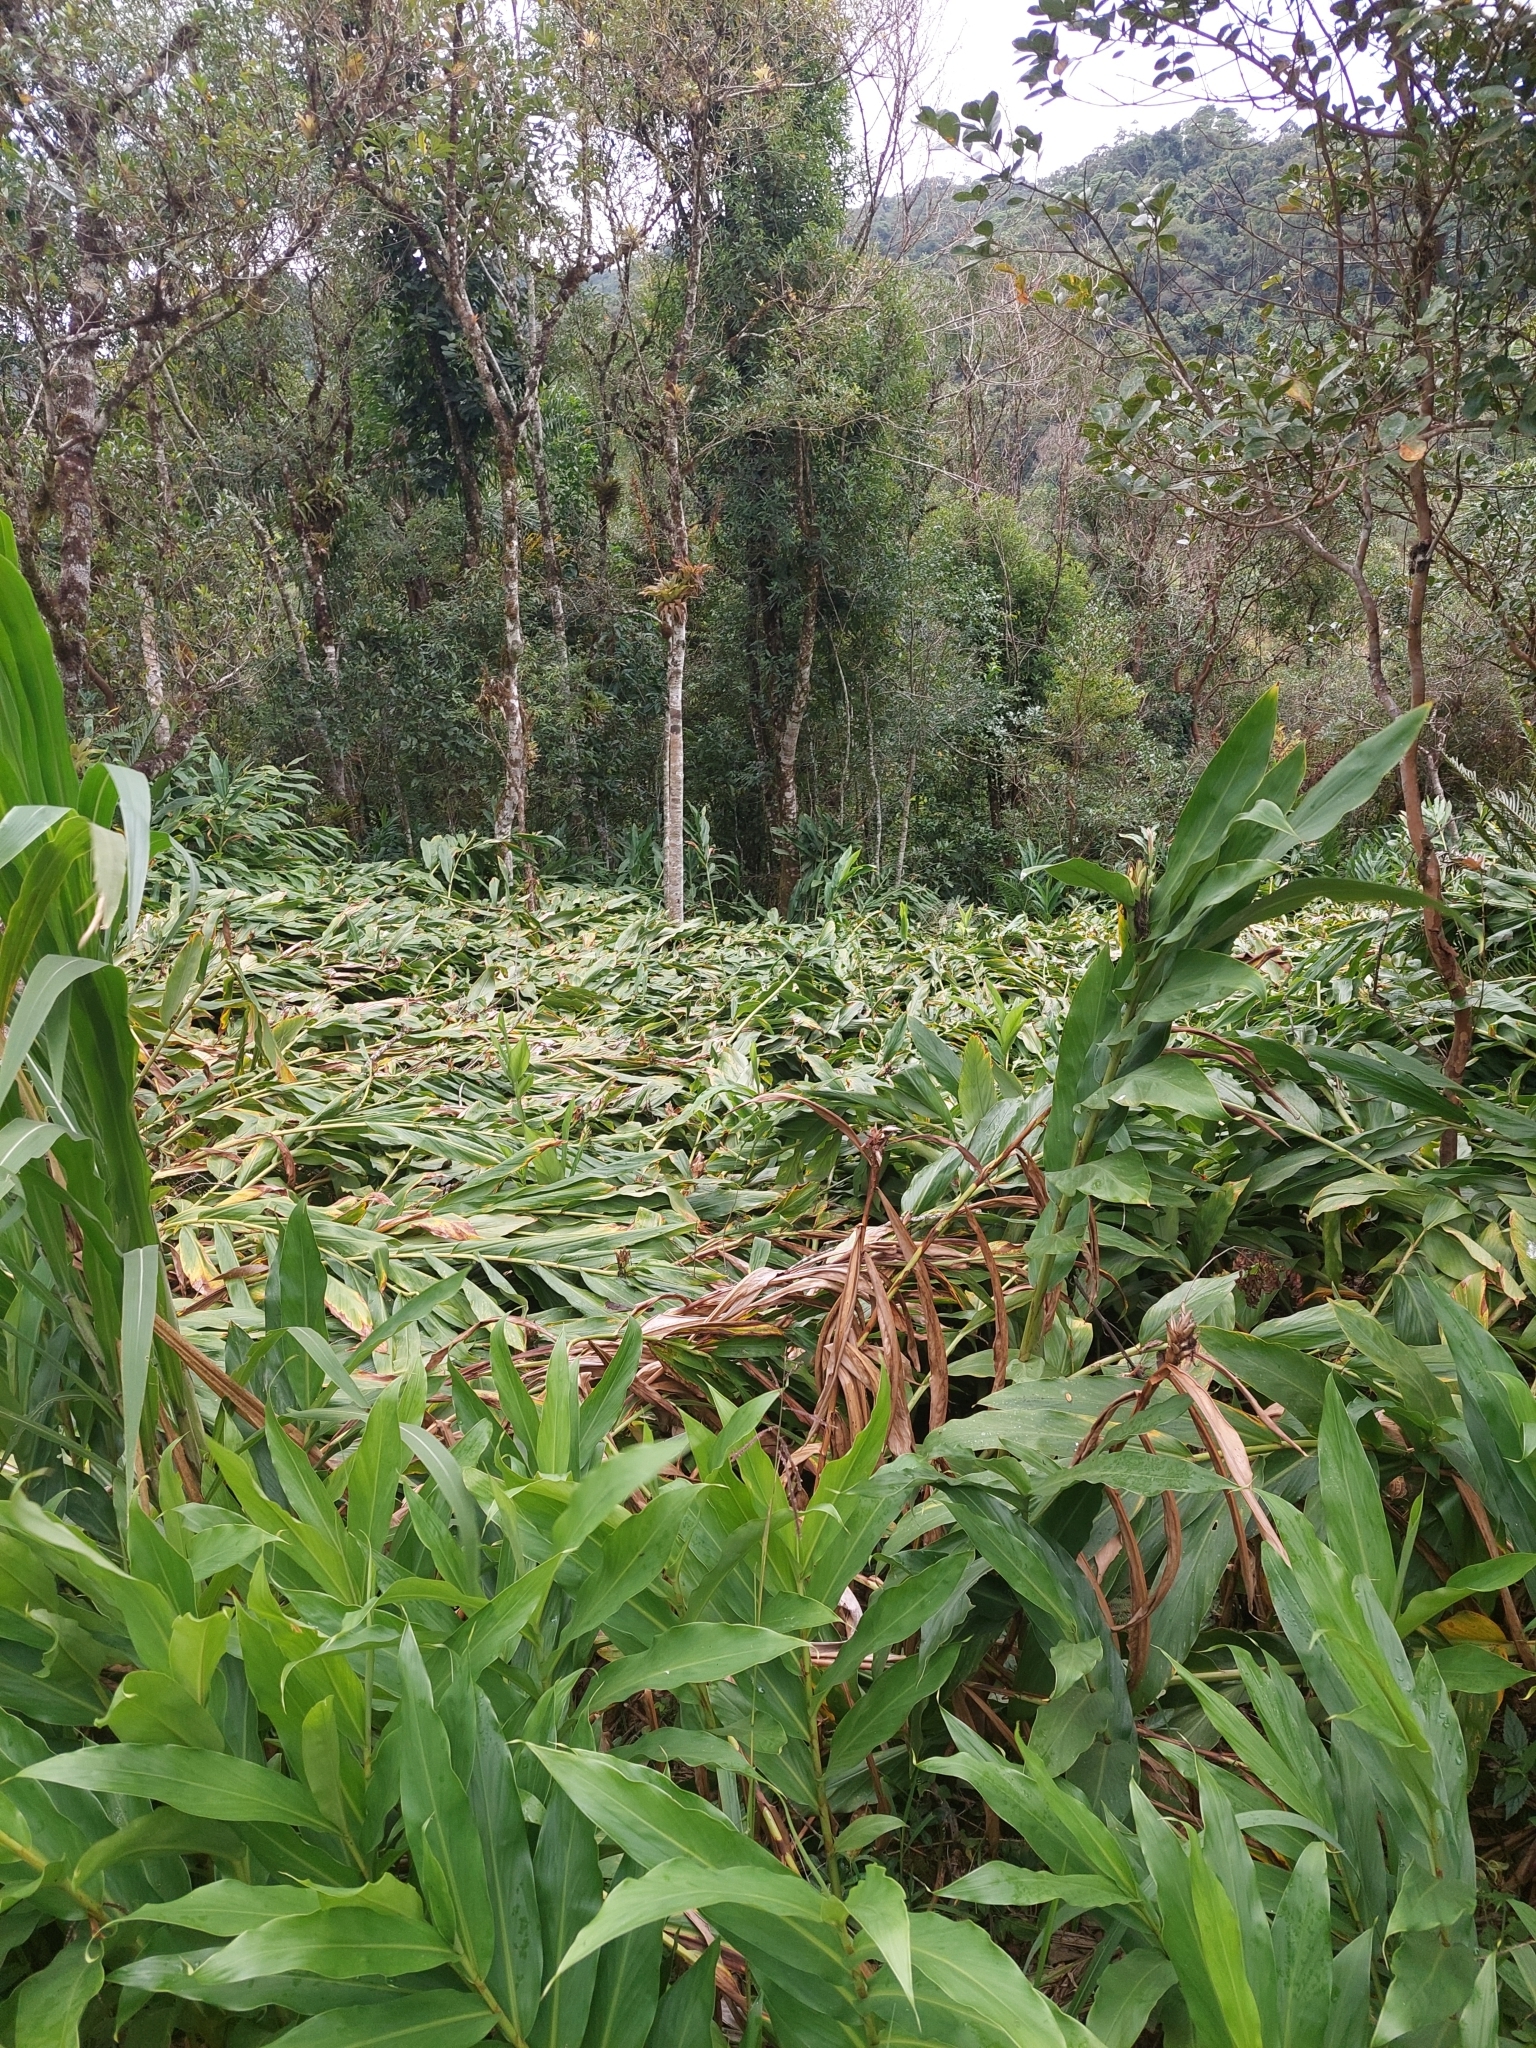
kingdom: Plantae
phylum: Tracheophyta
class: Liliopsida
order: Zingiberales
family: Zingiberaceae
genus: Hedychium
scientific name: Hedychium coronarium
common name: White garland-lily
